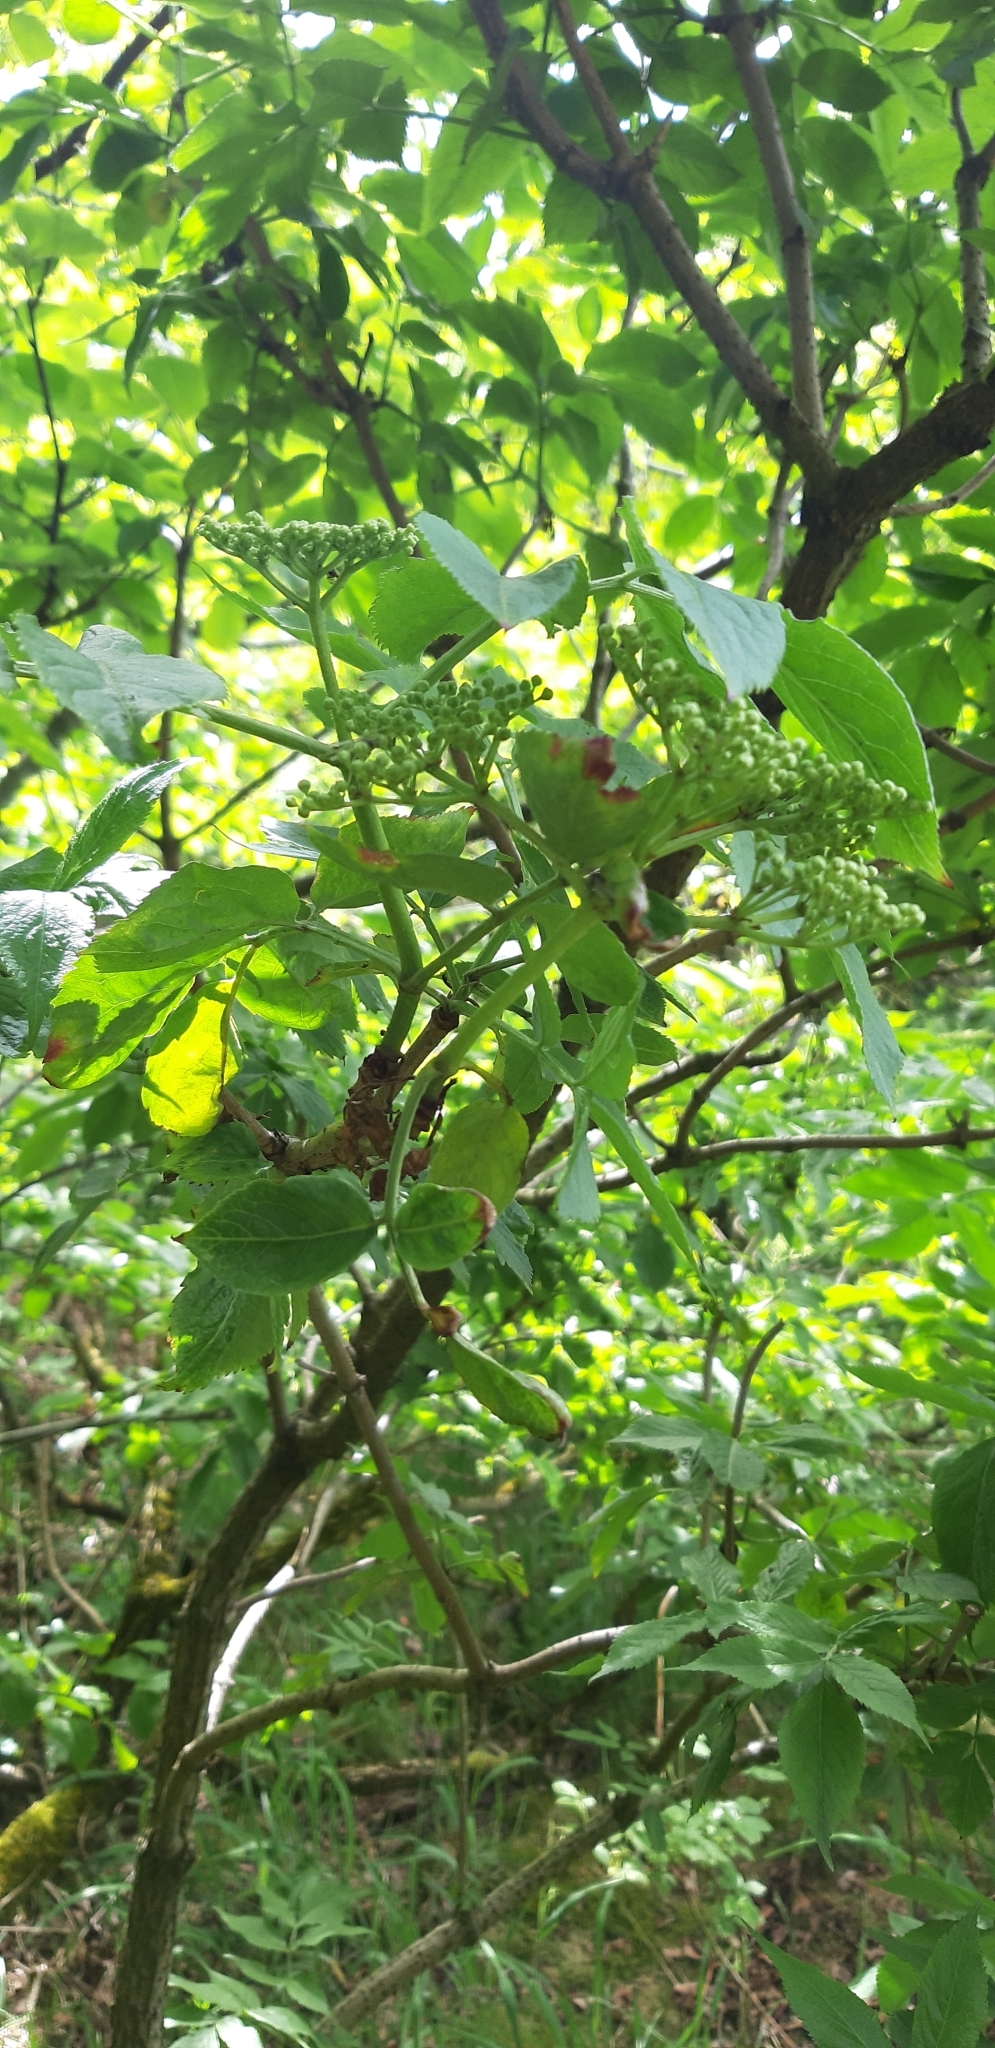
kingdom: Plantae
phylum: Tracheophyta
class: Magnoliopsida
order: Dipsacales
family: Viburnaceae
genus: Sambucus
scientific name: Sambucus nigra
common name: Elder
